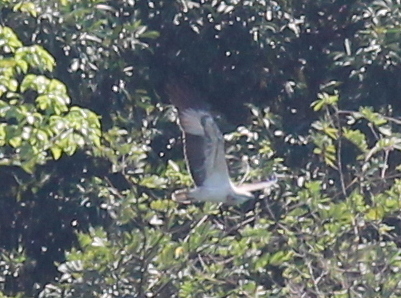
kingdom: Animalia
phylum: Chordata
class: Aves
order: Accipitriformes
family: Accipitridae
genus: Haliaeetus
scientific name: Haliaeetus leucogaster
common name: White-bellied sea eagle
